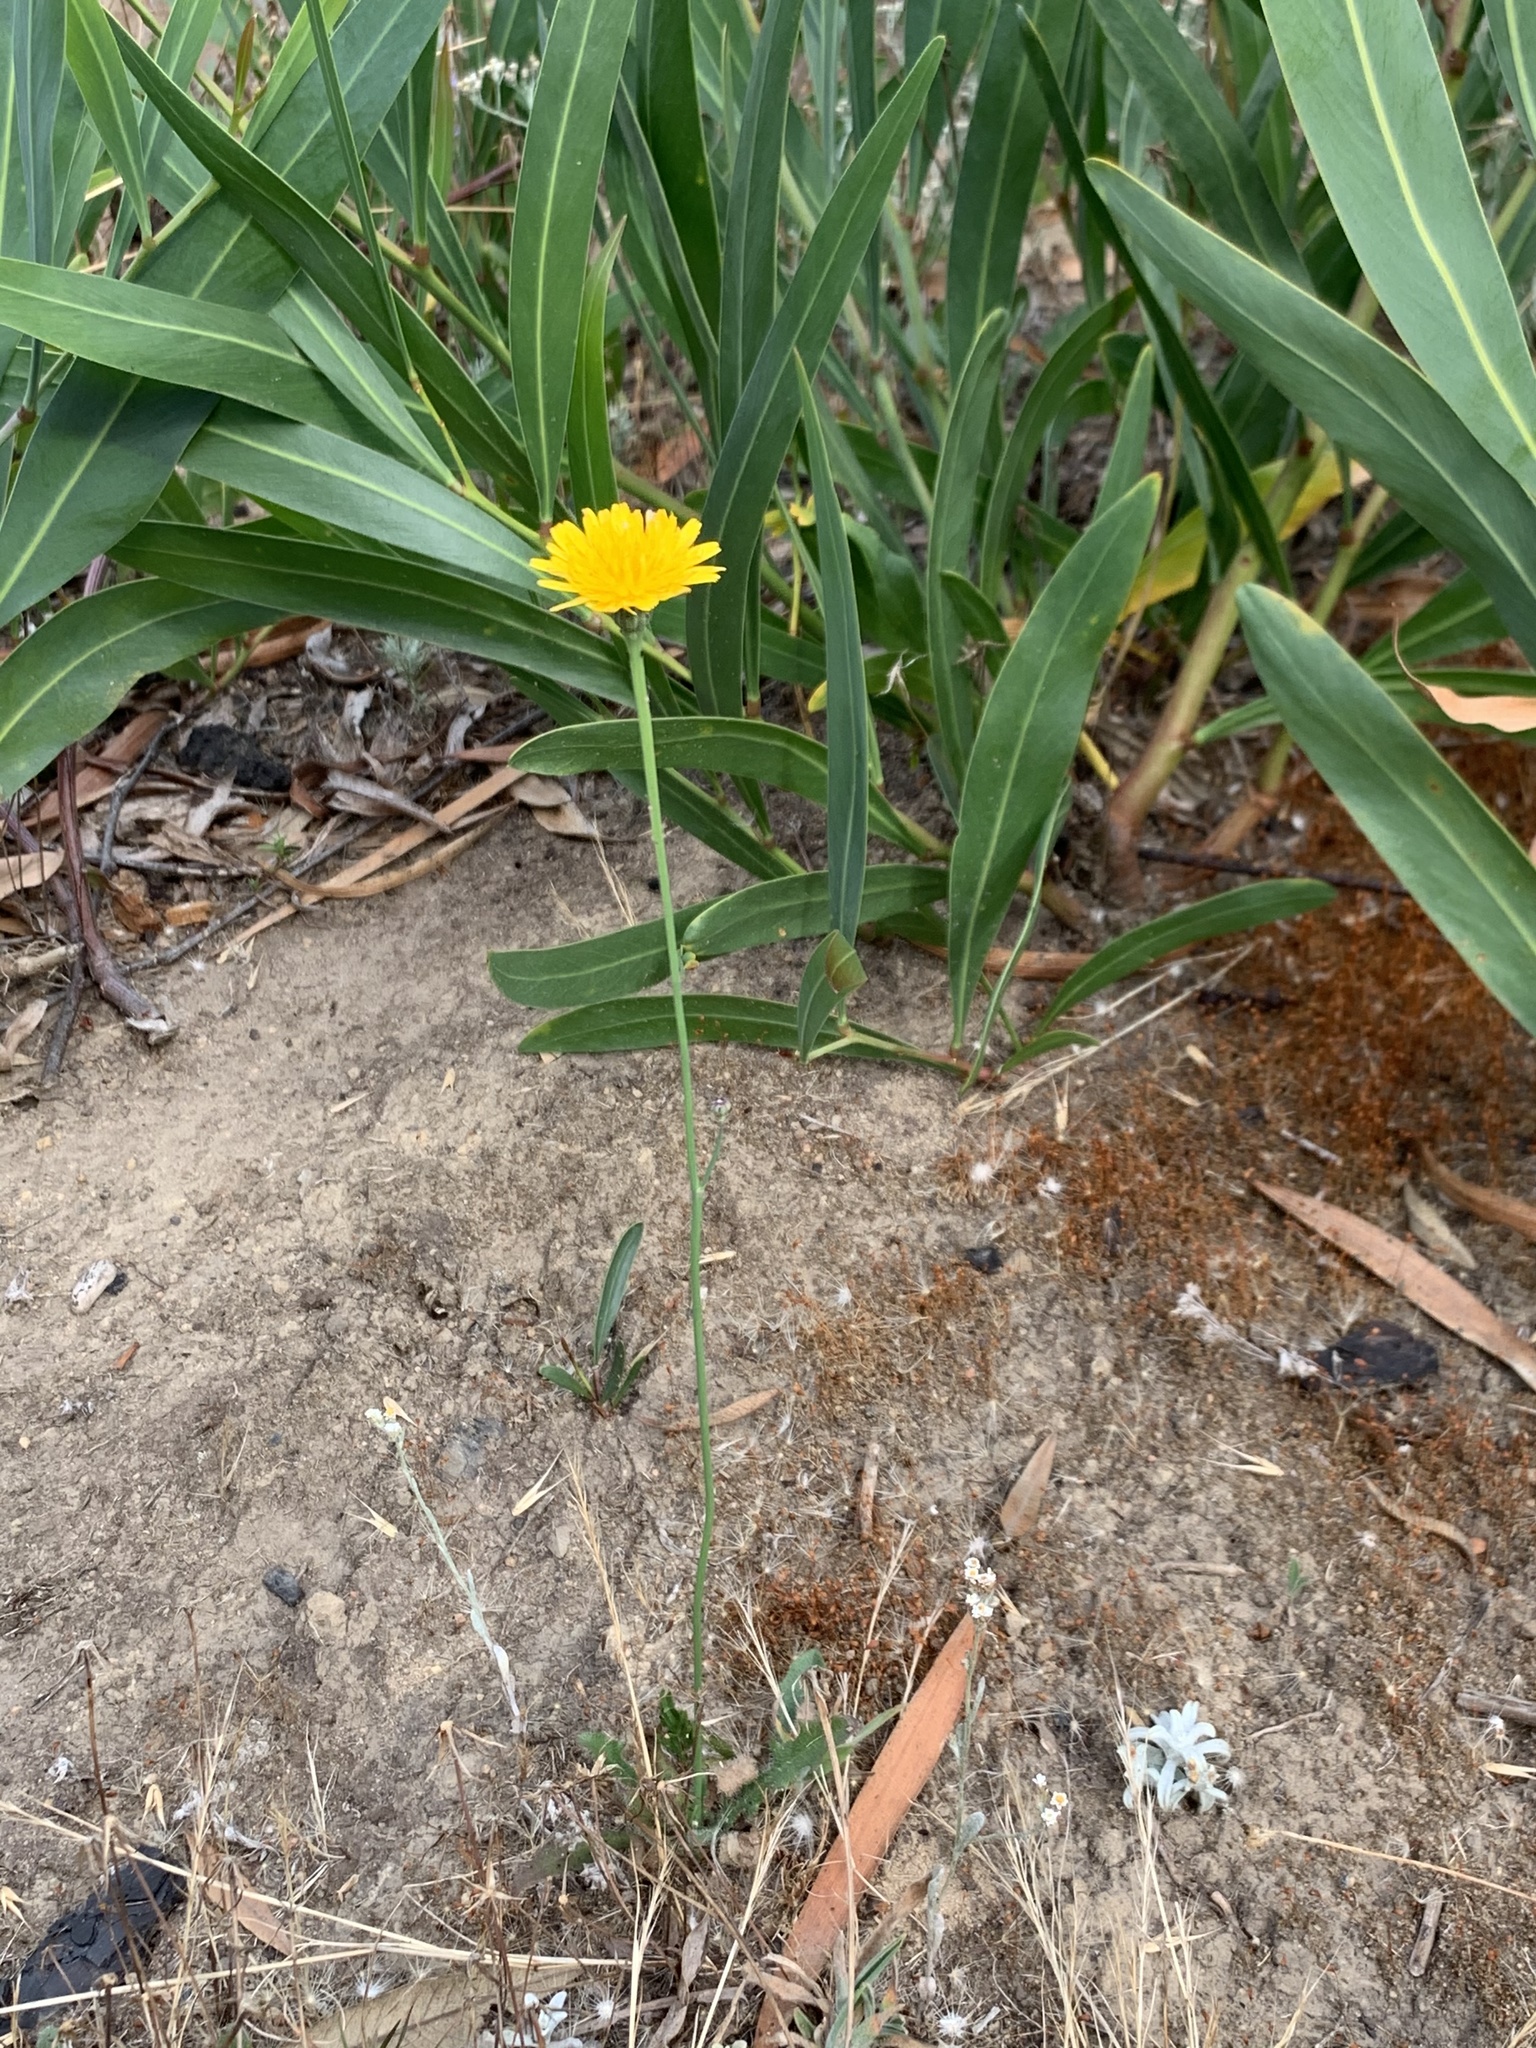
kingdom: Plantae
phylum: Tracheophyta
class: Magnoliopsida
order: Asterales
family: Asteraceae
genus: Hypochaeris
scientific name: Hypochaeris radicata
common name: Flatweed
